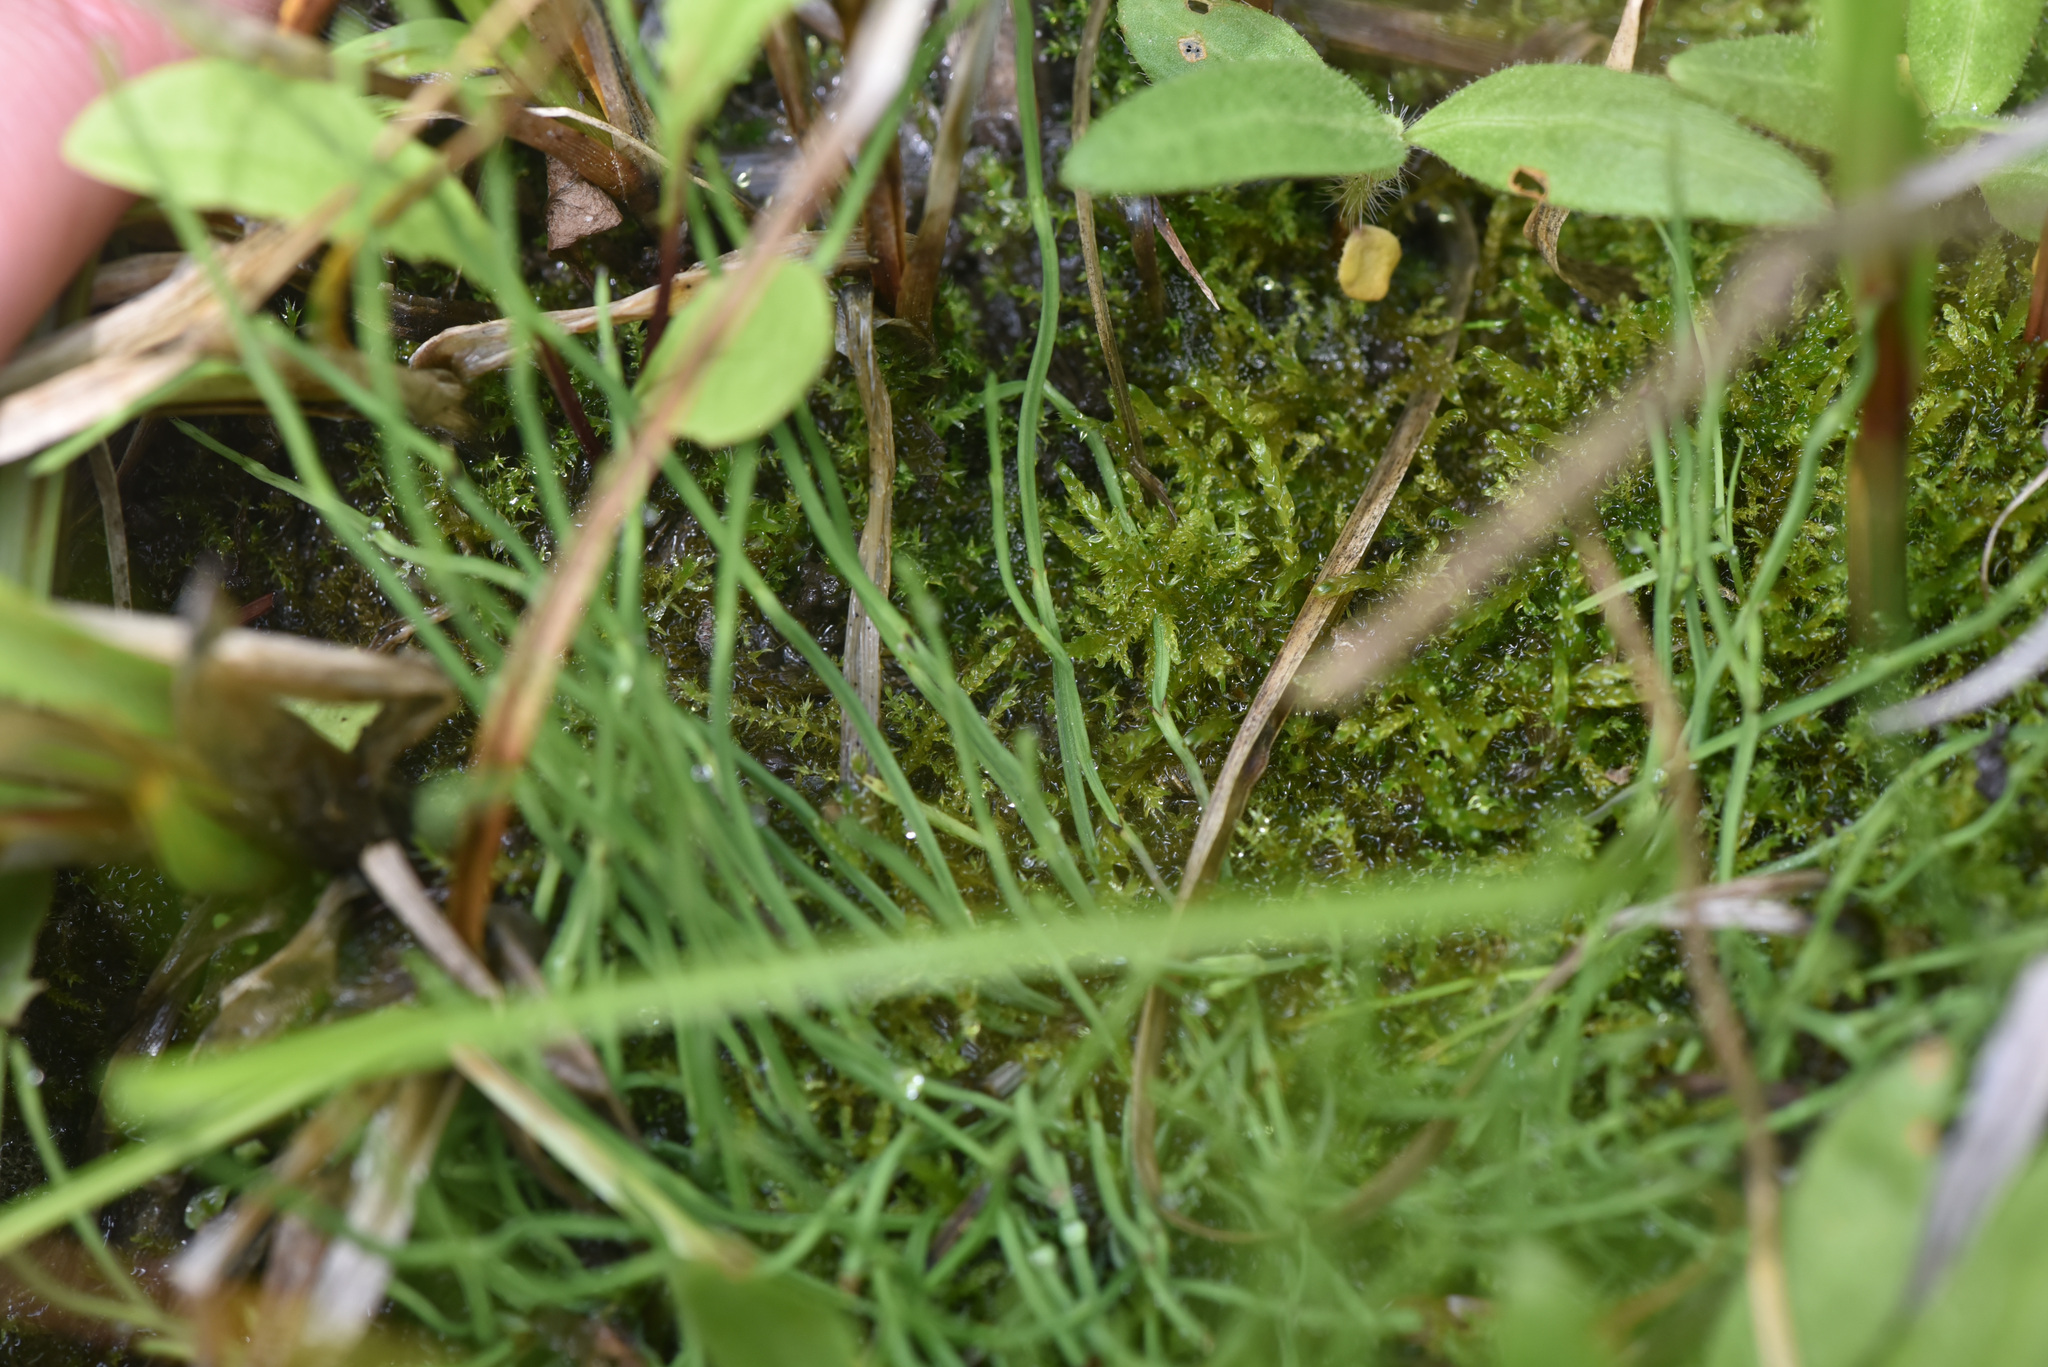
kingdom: Plantae
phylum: Tracheophyta
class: Polypodiopsida
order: Equisetales
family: Equisetaceae
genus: Equisetum
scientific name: Equisetum scirpoides
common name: Delicate horsetail
